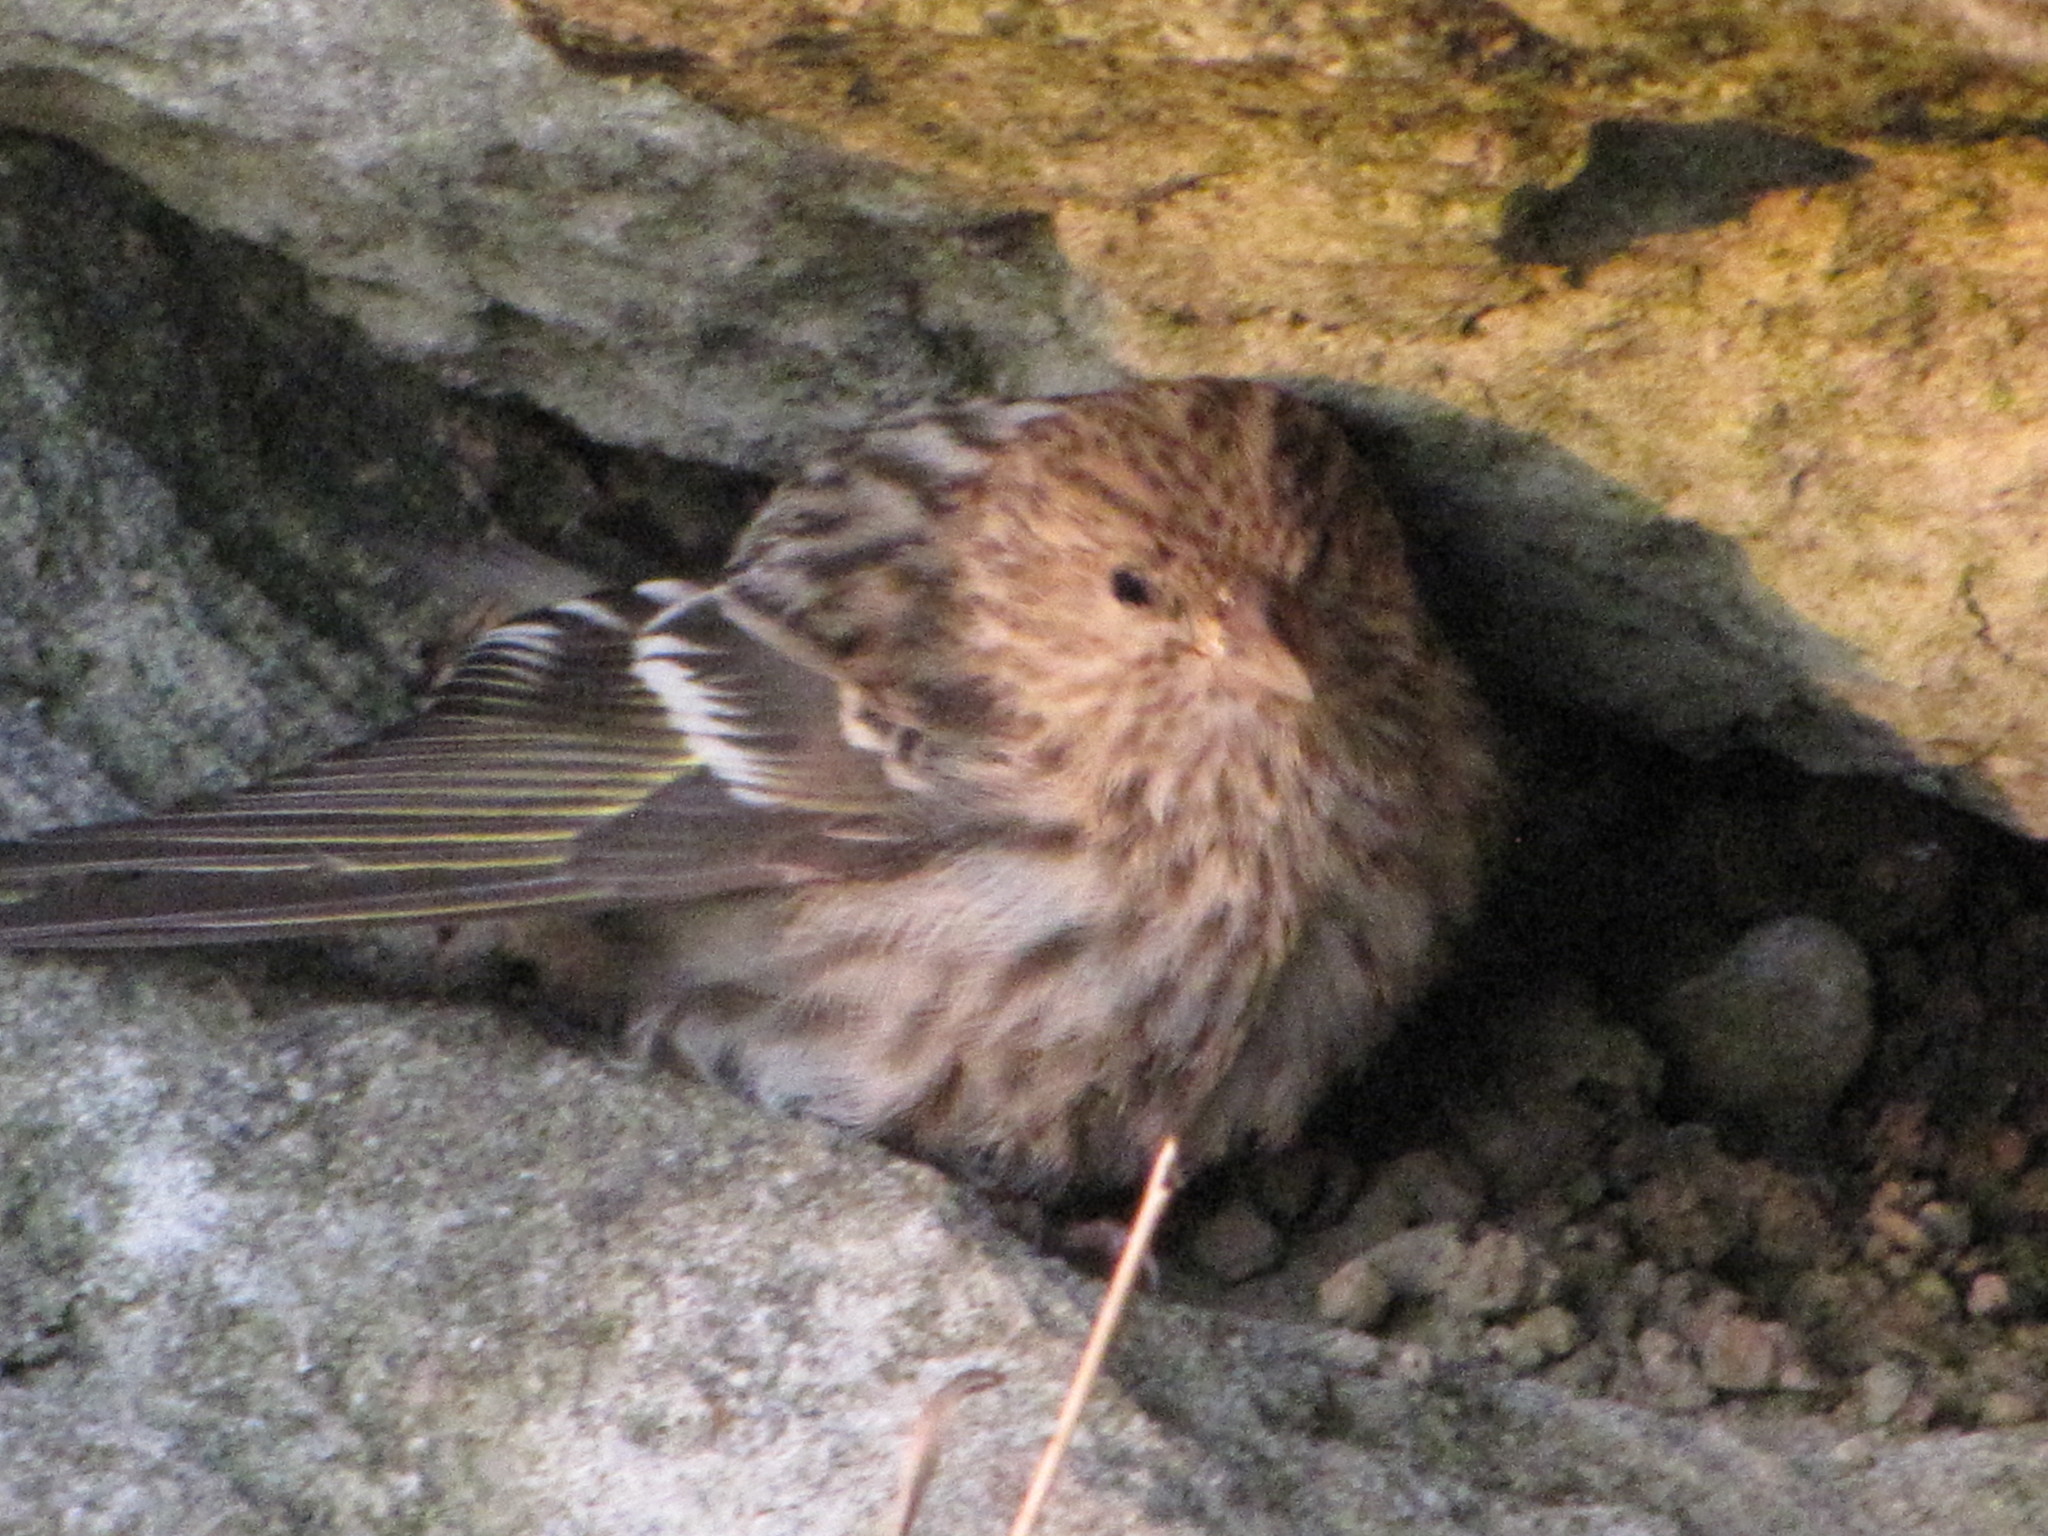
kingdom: Animalia
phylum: Chordata
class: Aves
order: Passeriformes
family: Fringillidae
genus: Spinus
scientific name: Spinus pinus
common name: Pine siskin
